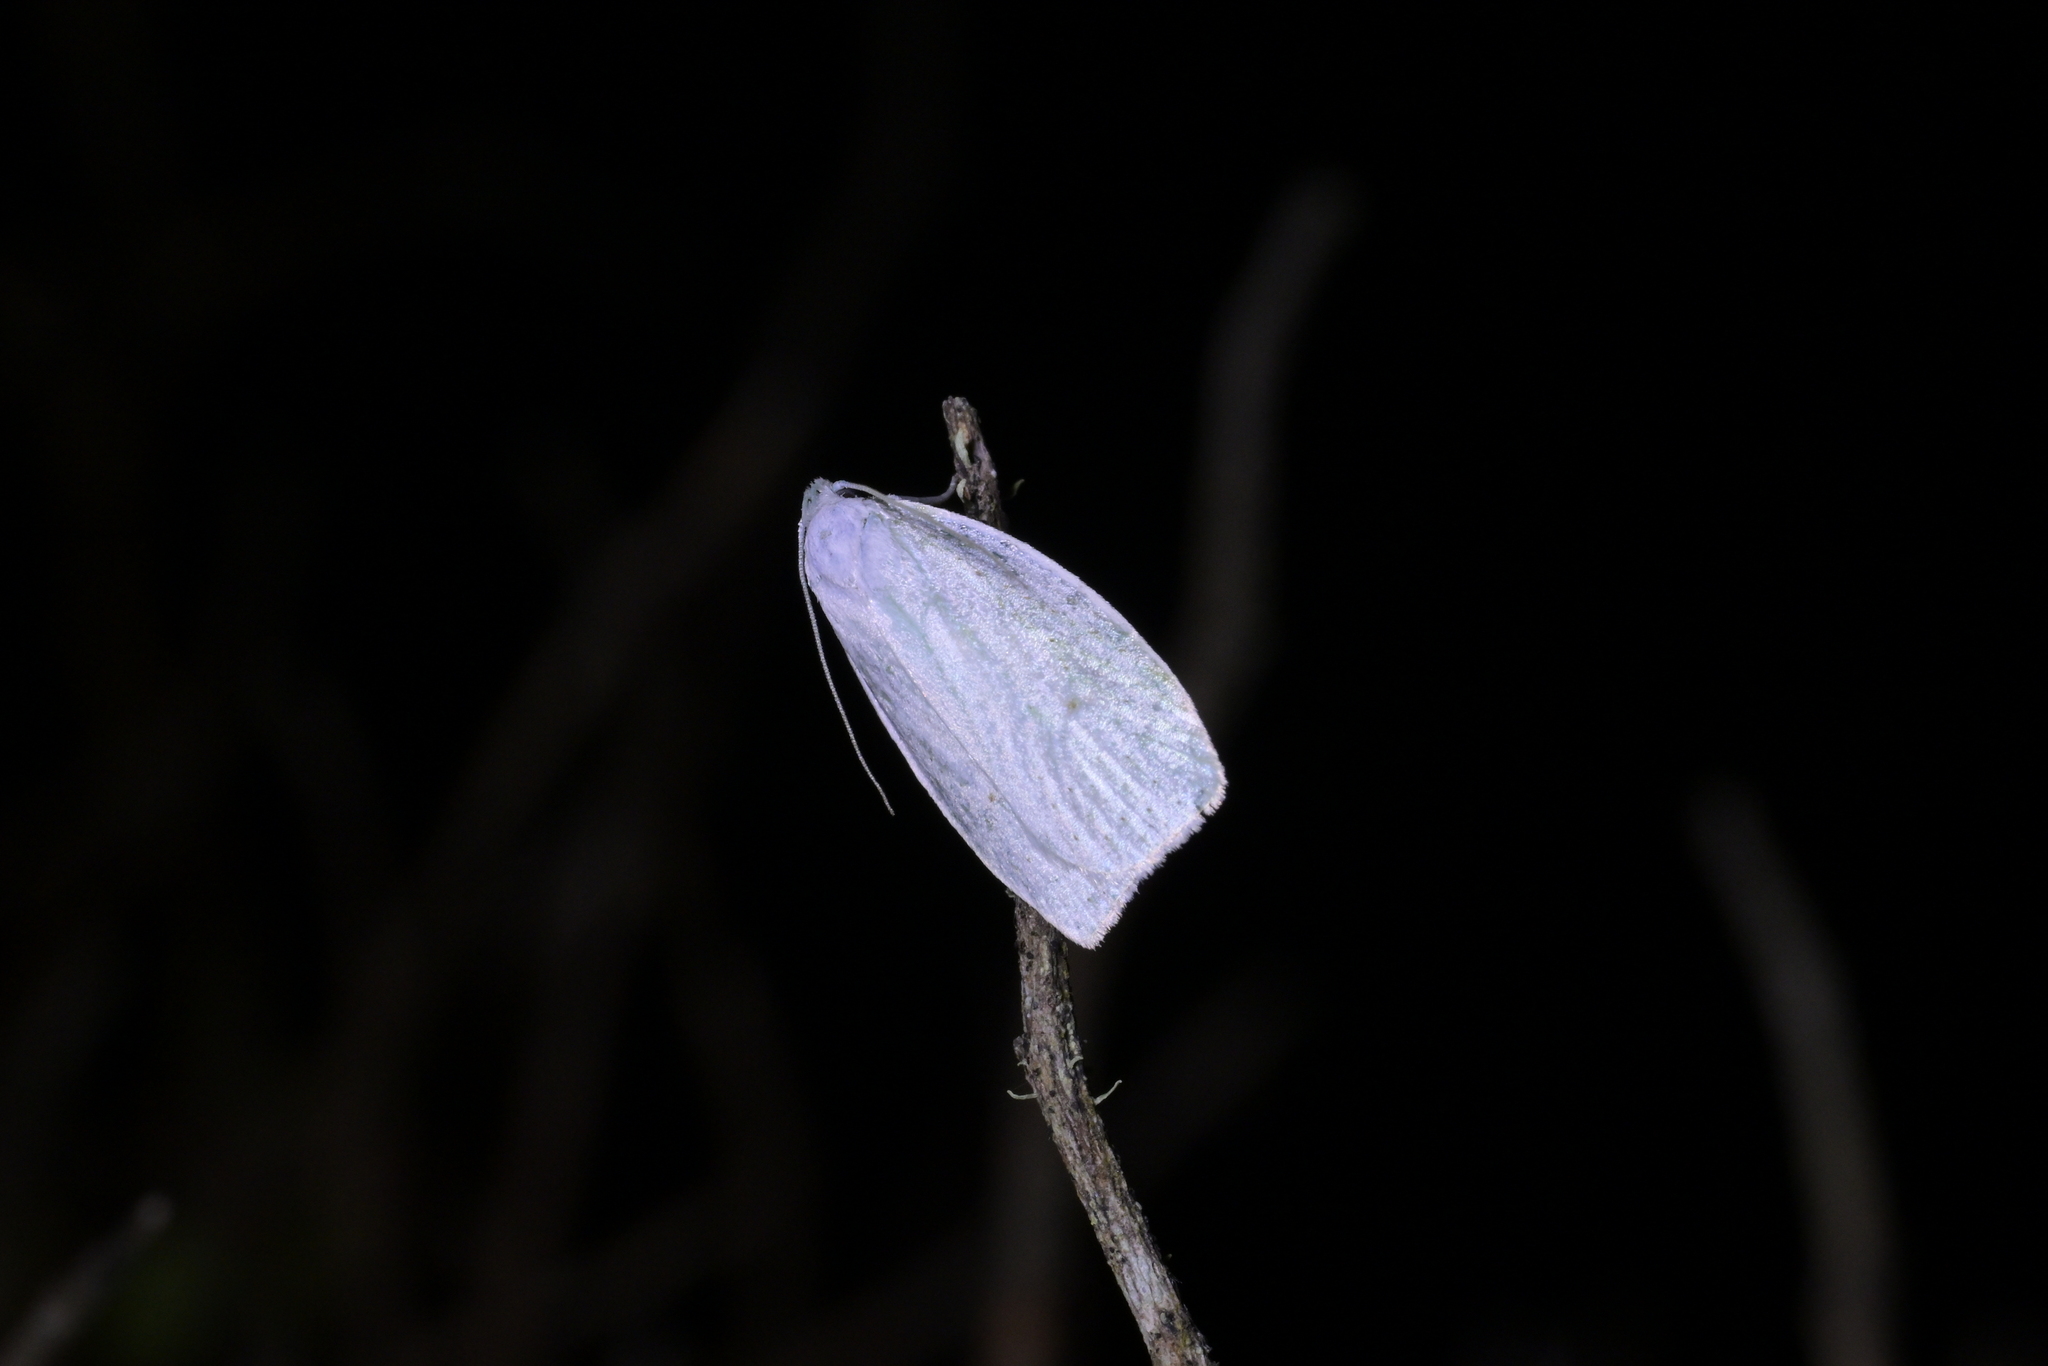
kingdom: Animalia
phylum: Arthropoda
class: Insecta
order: Lepidoptera
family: Oecophoridae
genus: Nymphostola
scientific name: Nymphostola galactina
